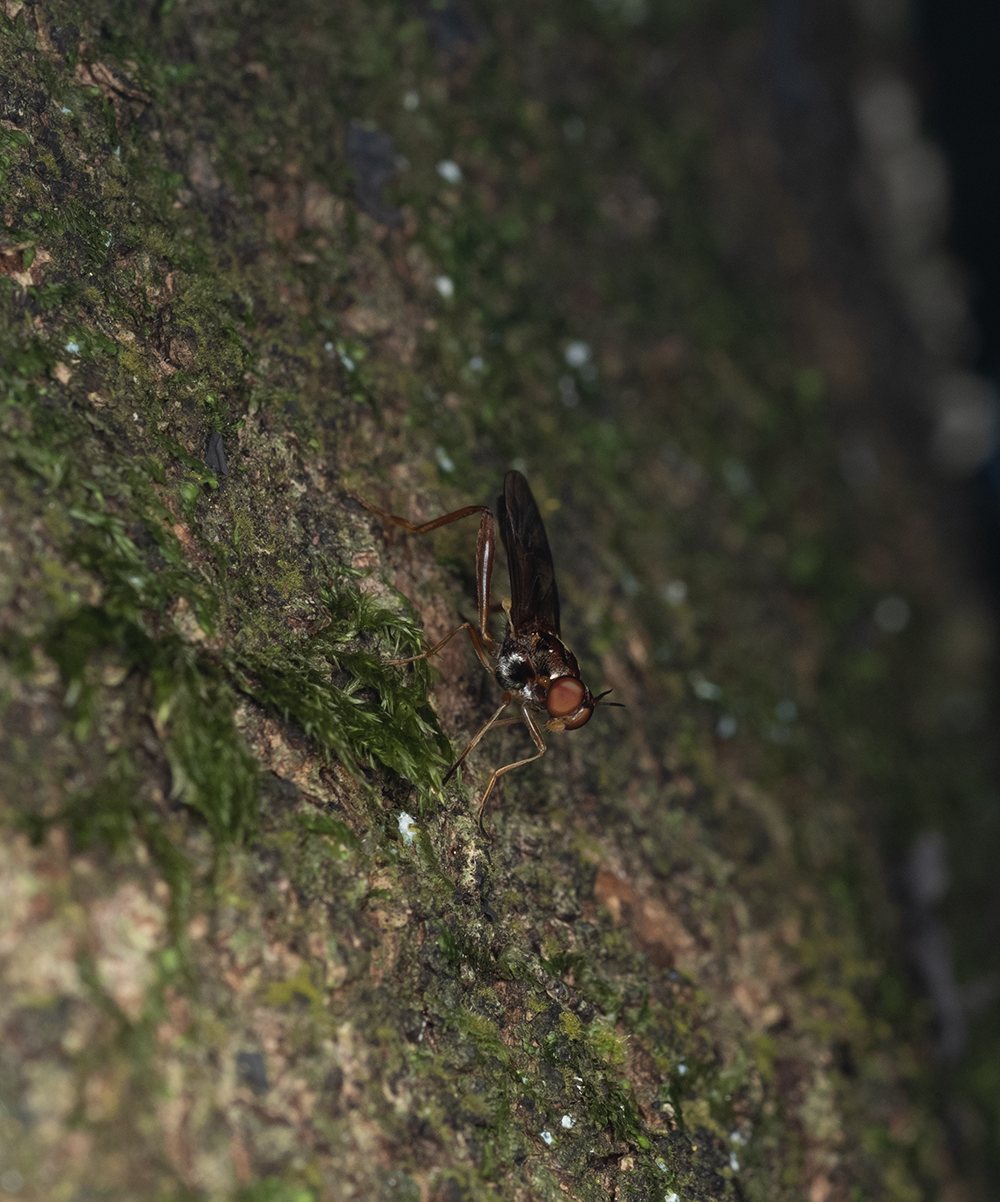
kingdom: Animalia
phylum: Arthropoda
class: Insecta
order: Diptera
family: Stratiomyidae
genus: Benhamyia
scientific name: Benhamyia straznitzkii
